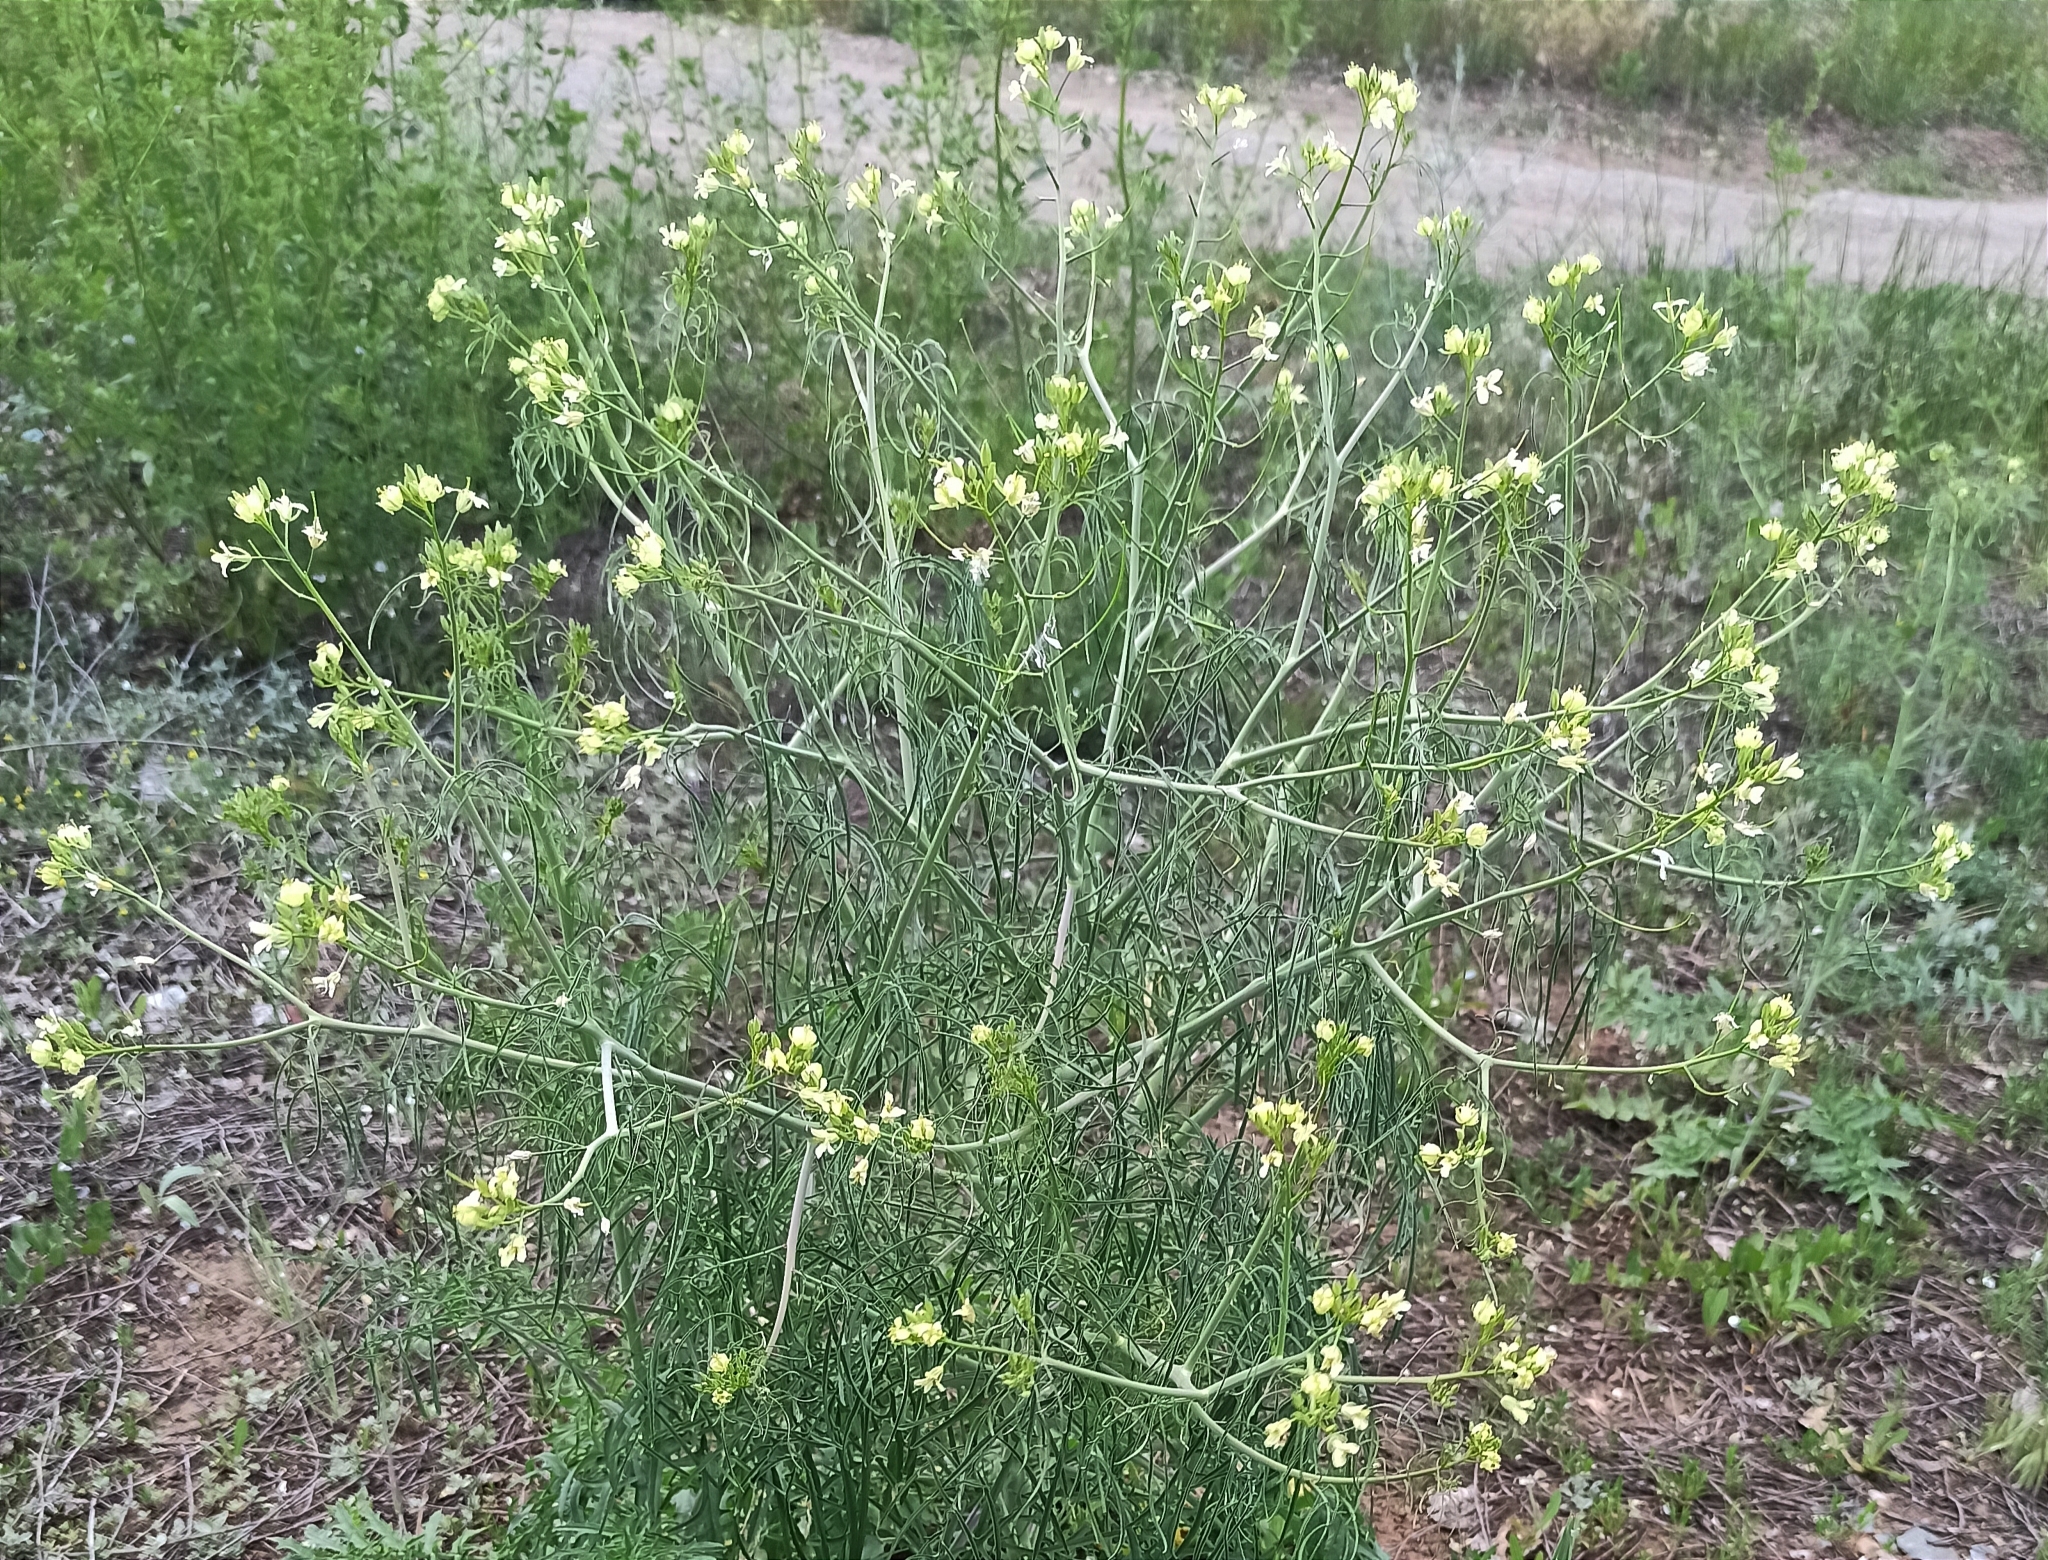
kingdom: Plantae
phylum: Tracheophyta
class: Magnoliopsida
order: Brassicales
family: Brassicaceae
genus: Sisymbrium
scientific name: Sisymbrium altissimum
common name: Tall rocket
